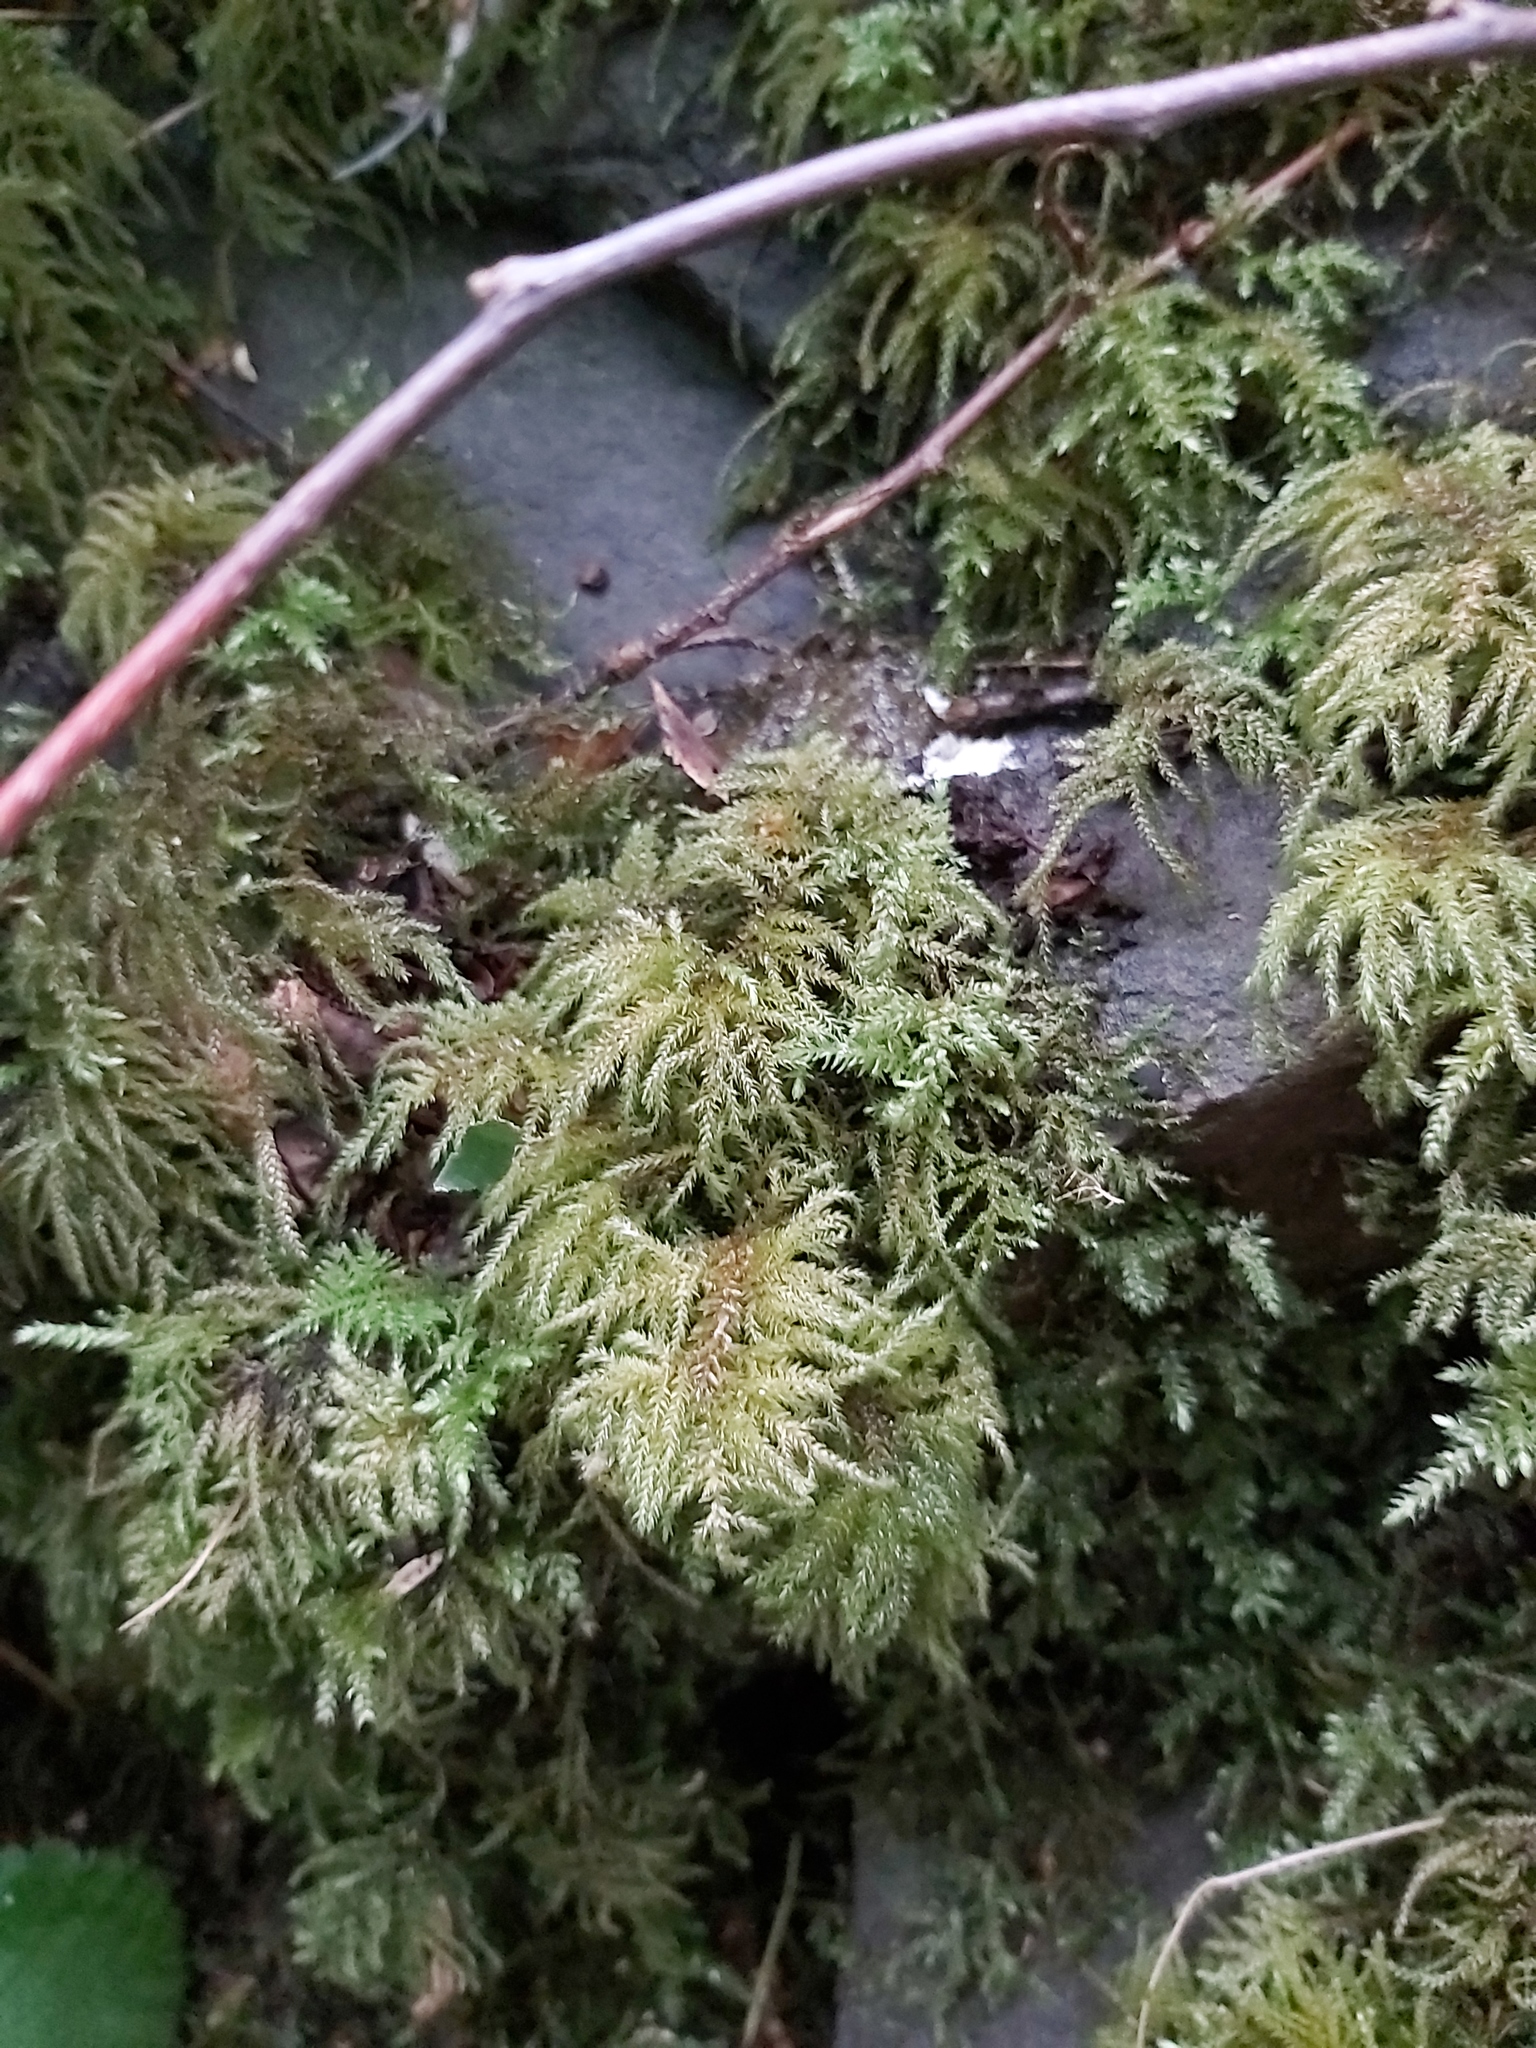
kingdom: Plantae
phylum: Bryophyta
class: Bryopsida
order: Hypnales
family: Neckeraceae
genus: Thamnobryum
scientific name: Thamnobryum alopecurum
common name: Fox-tail feather-moss
